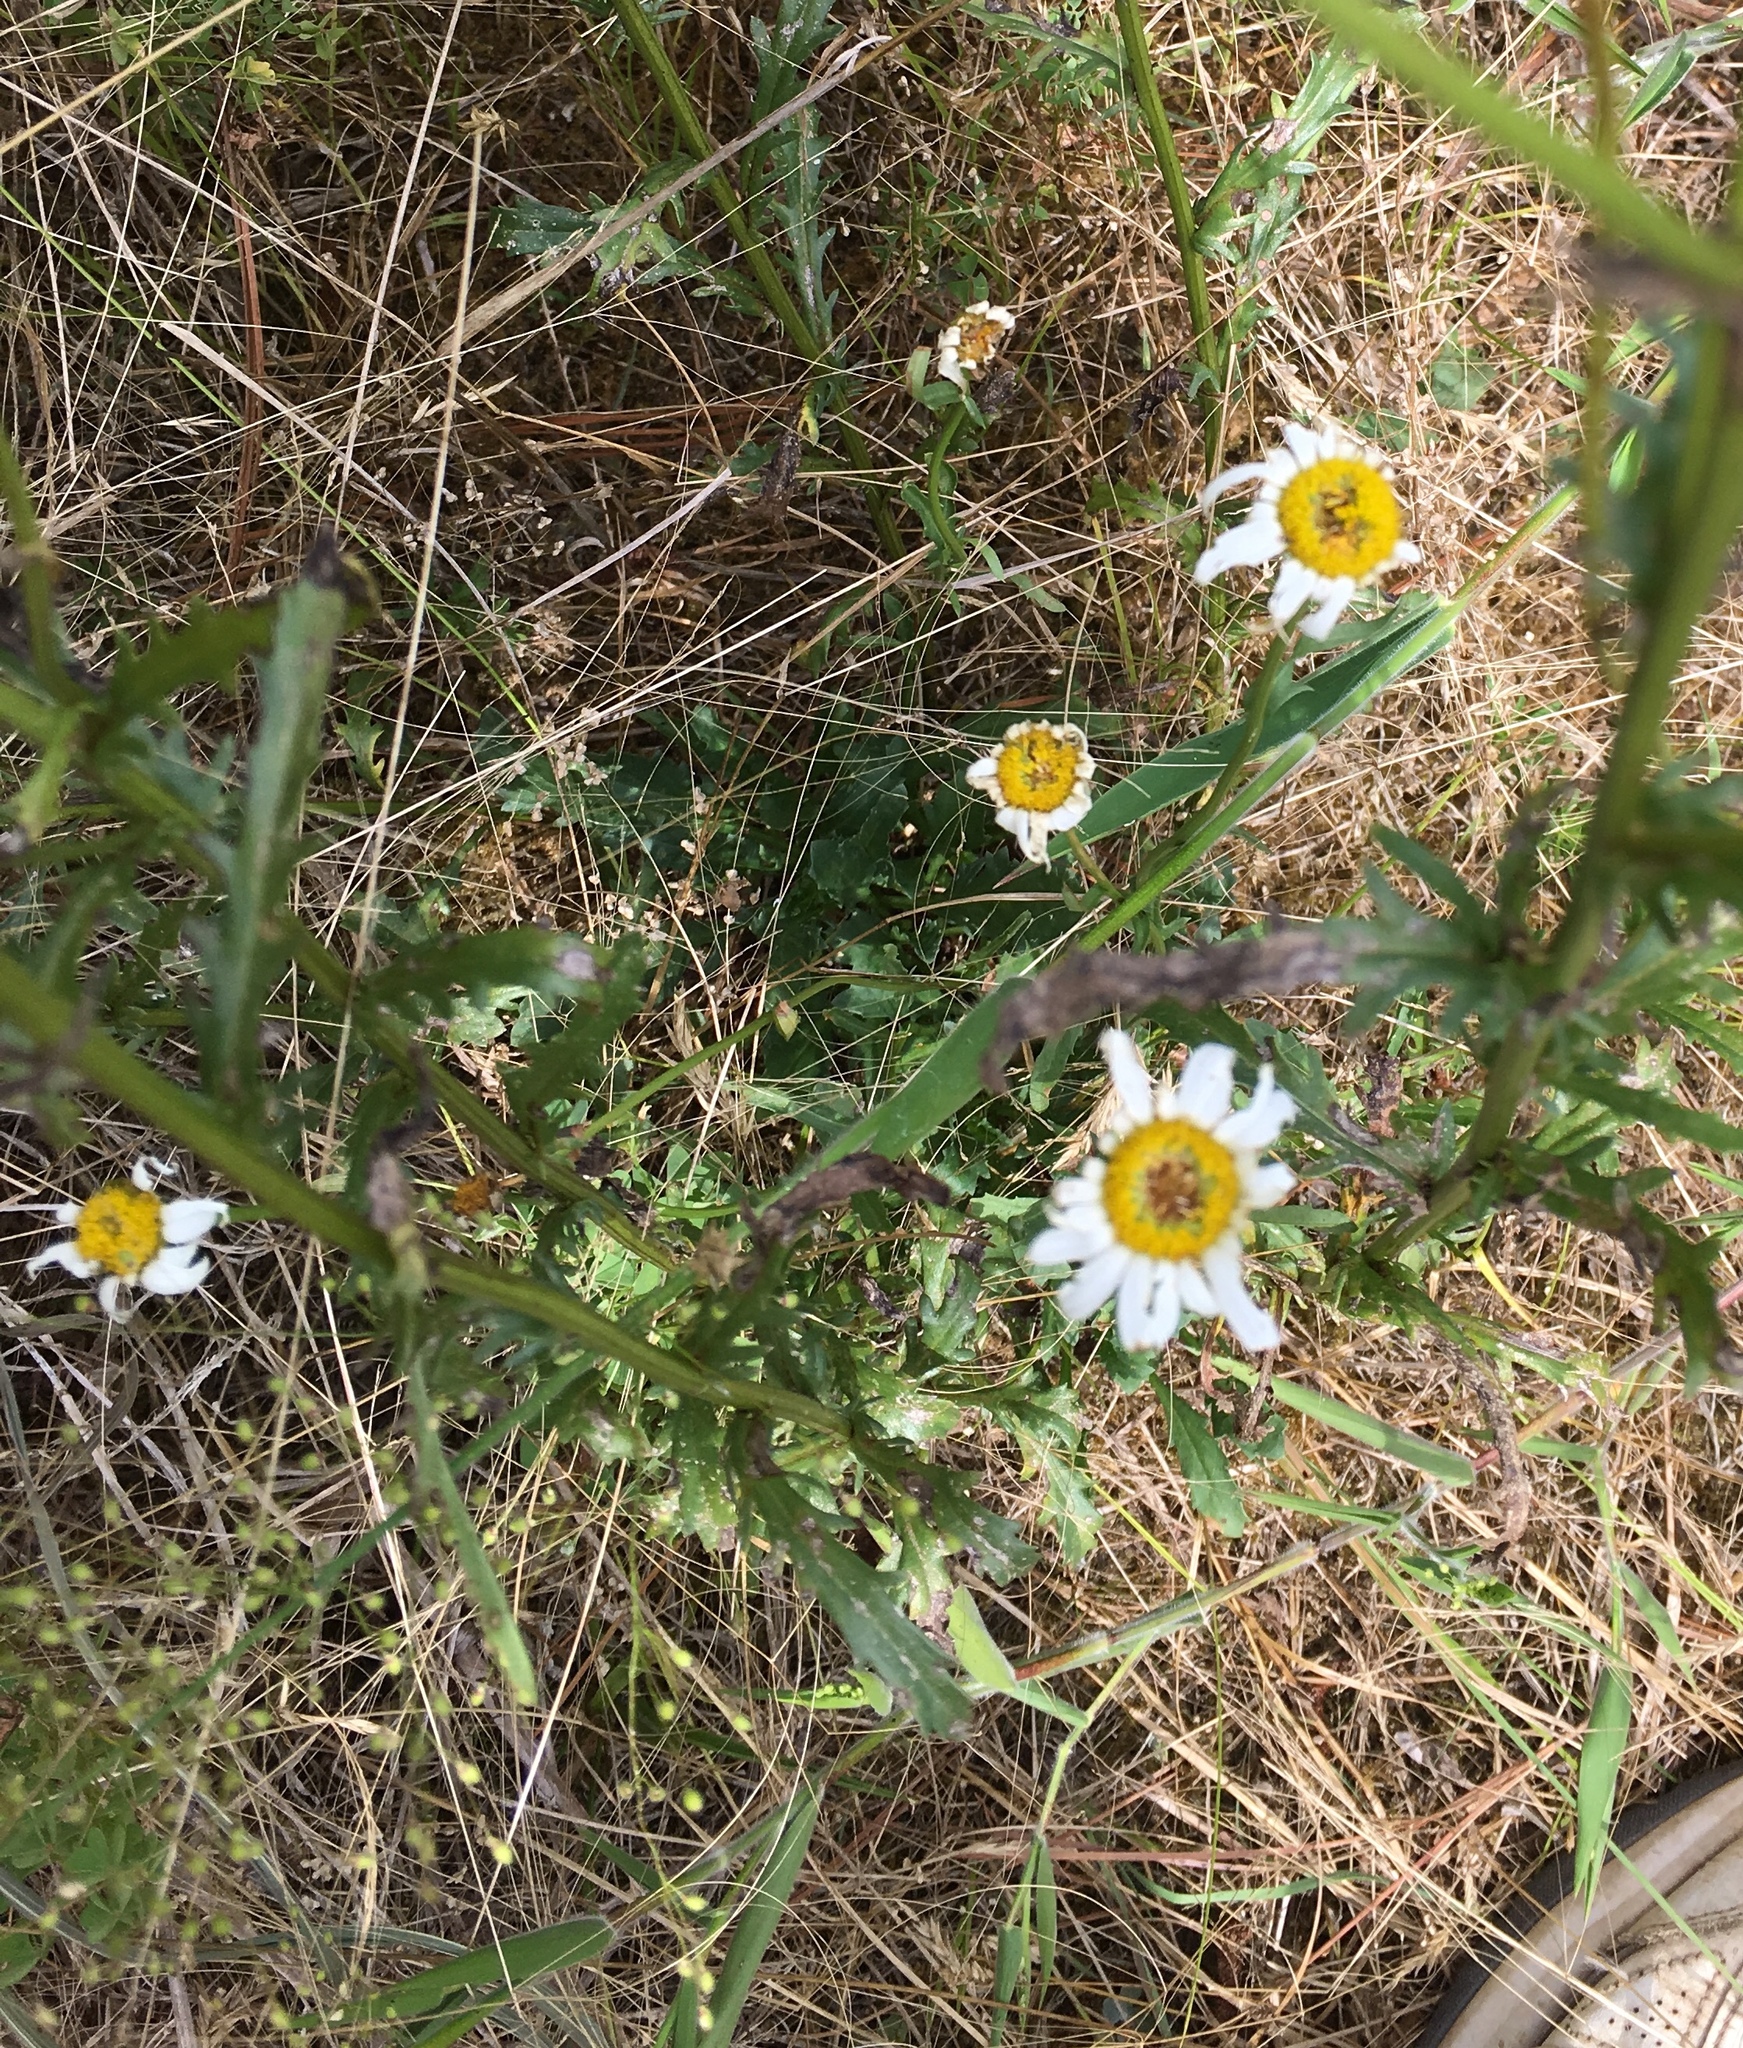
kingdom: Plantae
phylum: Tracheophyta
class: Magnoliopsida
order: Asterales
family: Asteraceae
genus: Leucanthemum
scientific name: Leucanthemum vulgare
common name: Oxeye daisy
